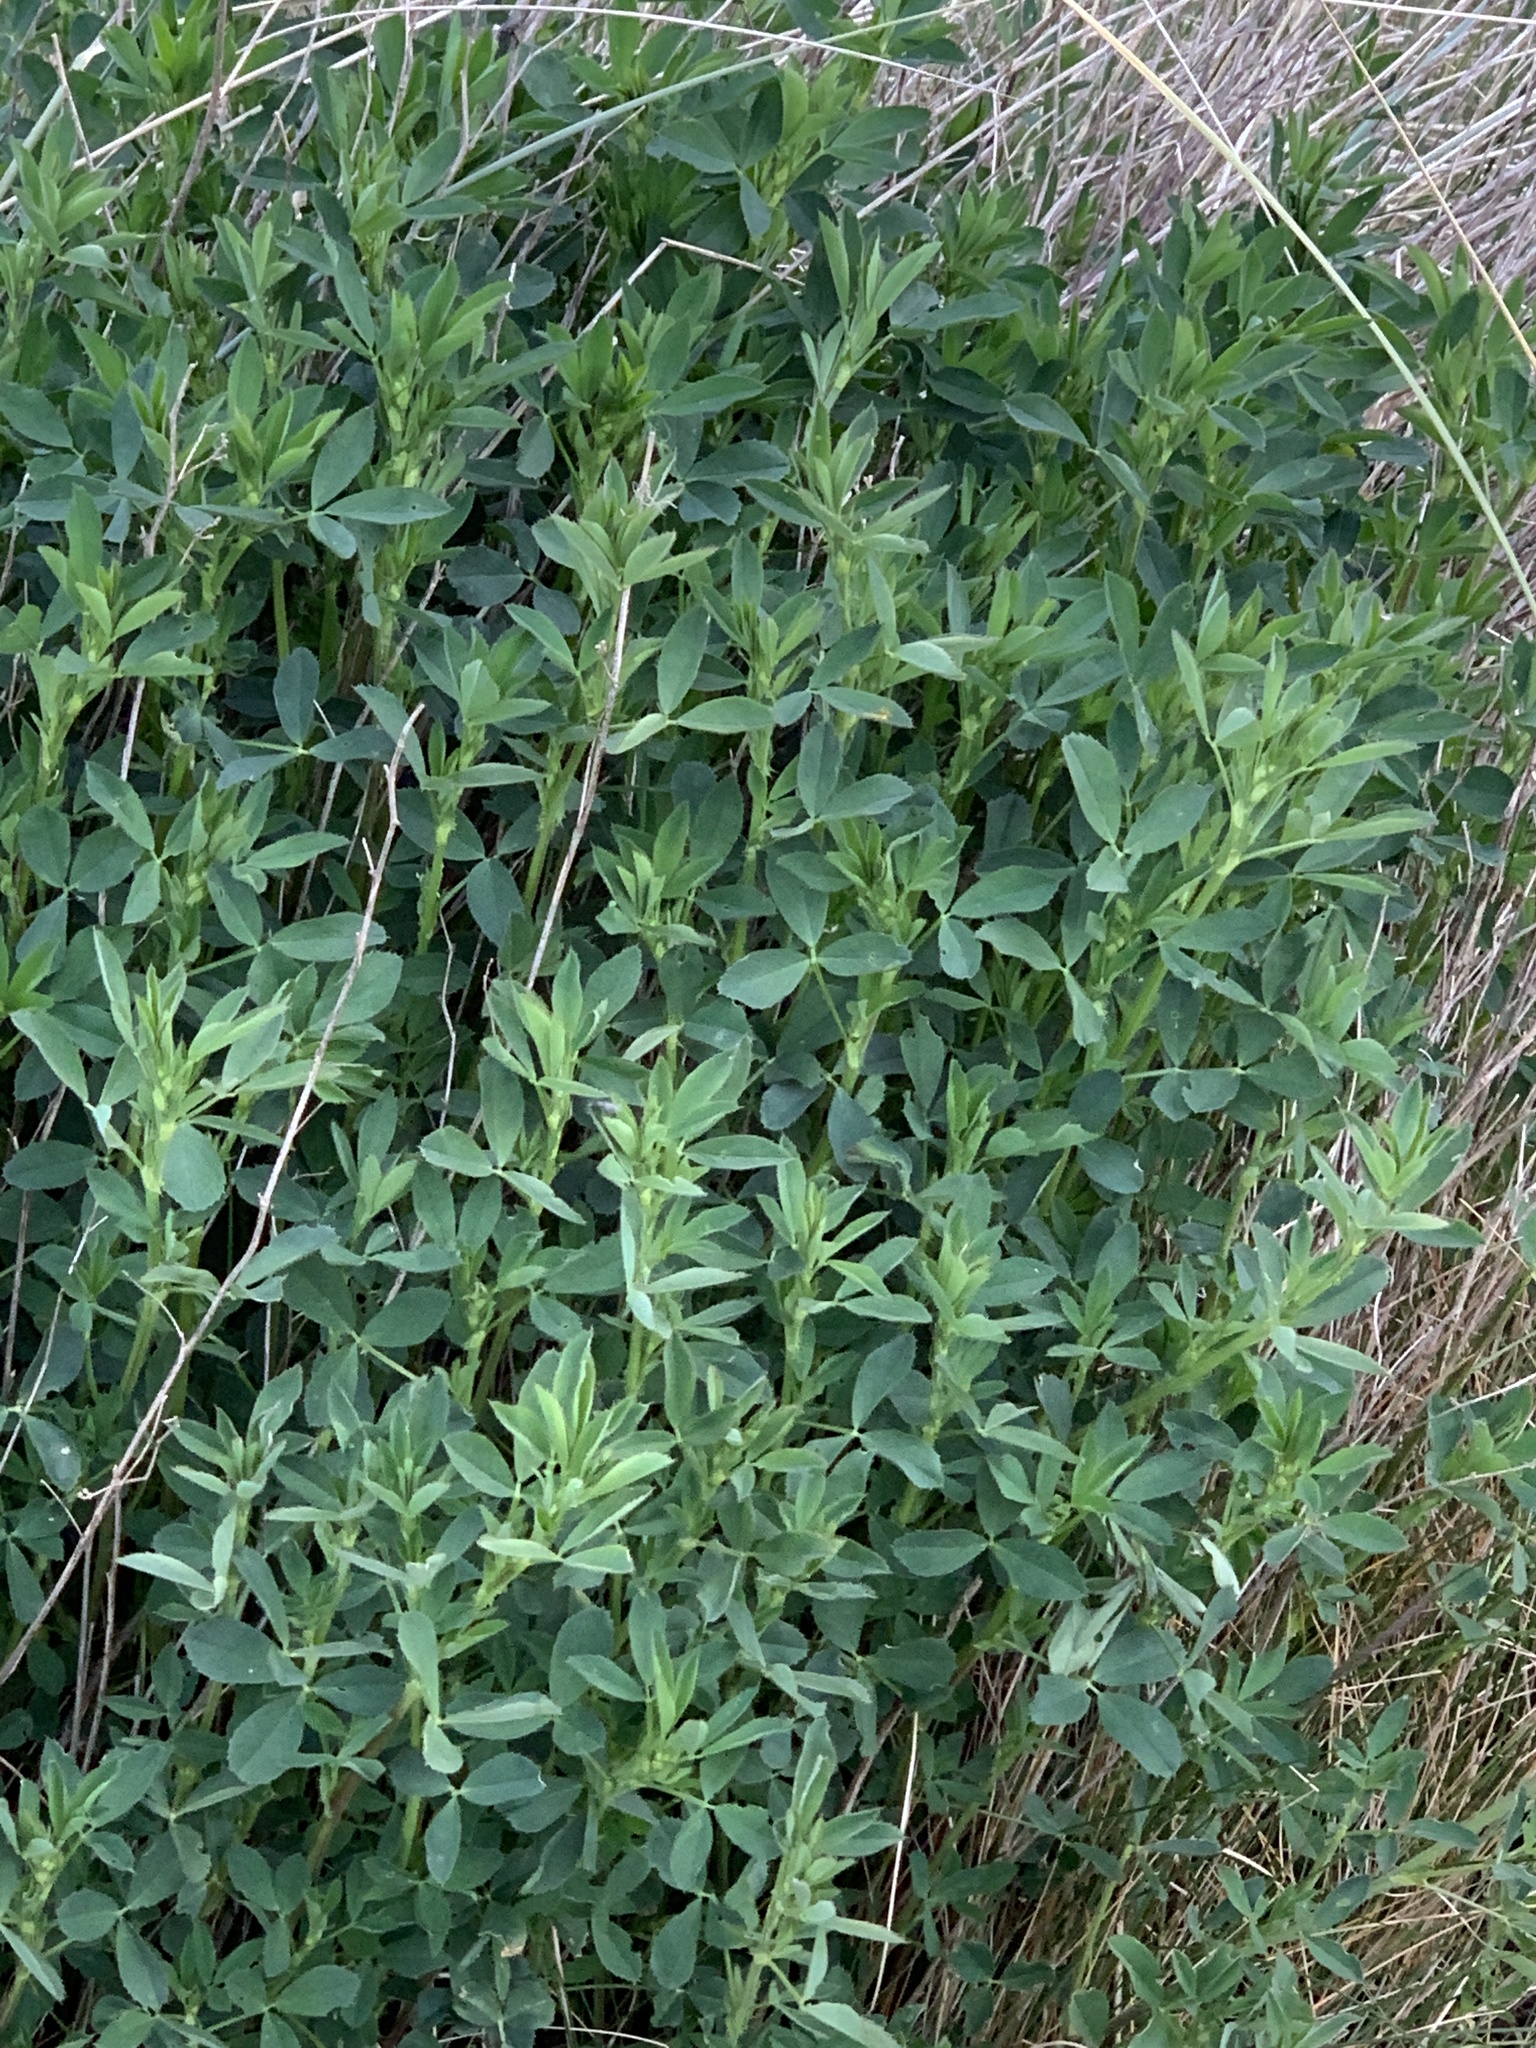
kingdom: Plantae
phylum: Tracheophyta
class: Magnoliopsida
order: Fabales
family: Fabaceae
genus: Medicago
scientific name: Medicago sativa
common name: Alfalfa
